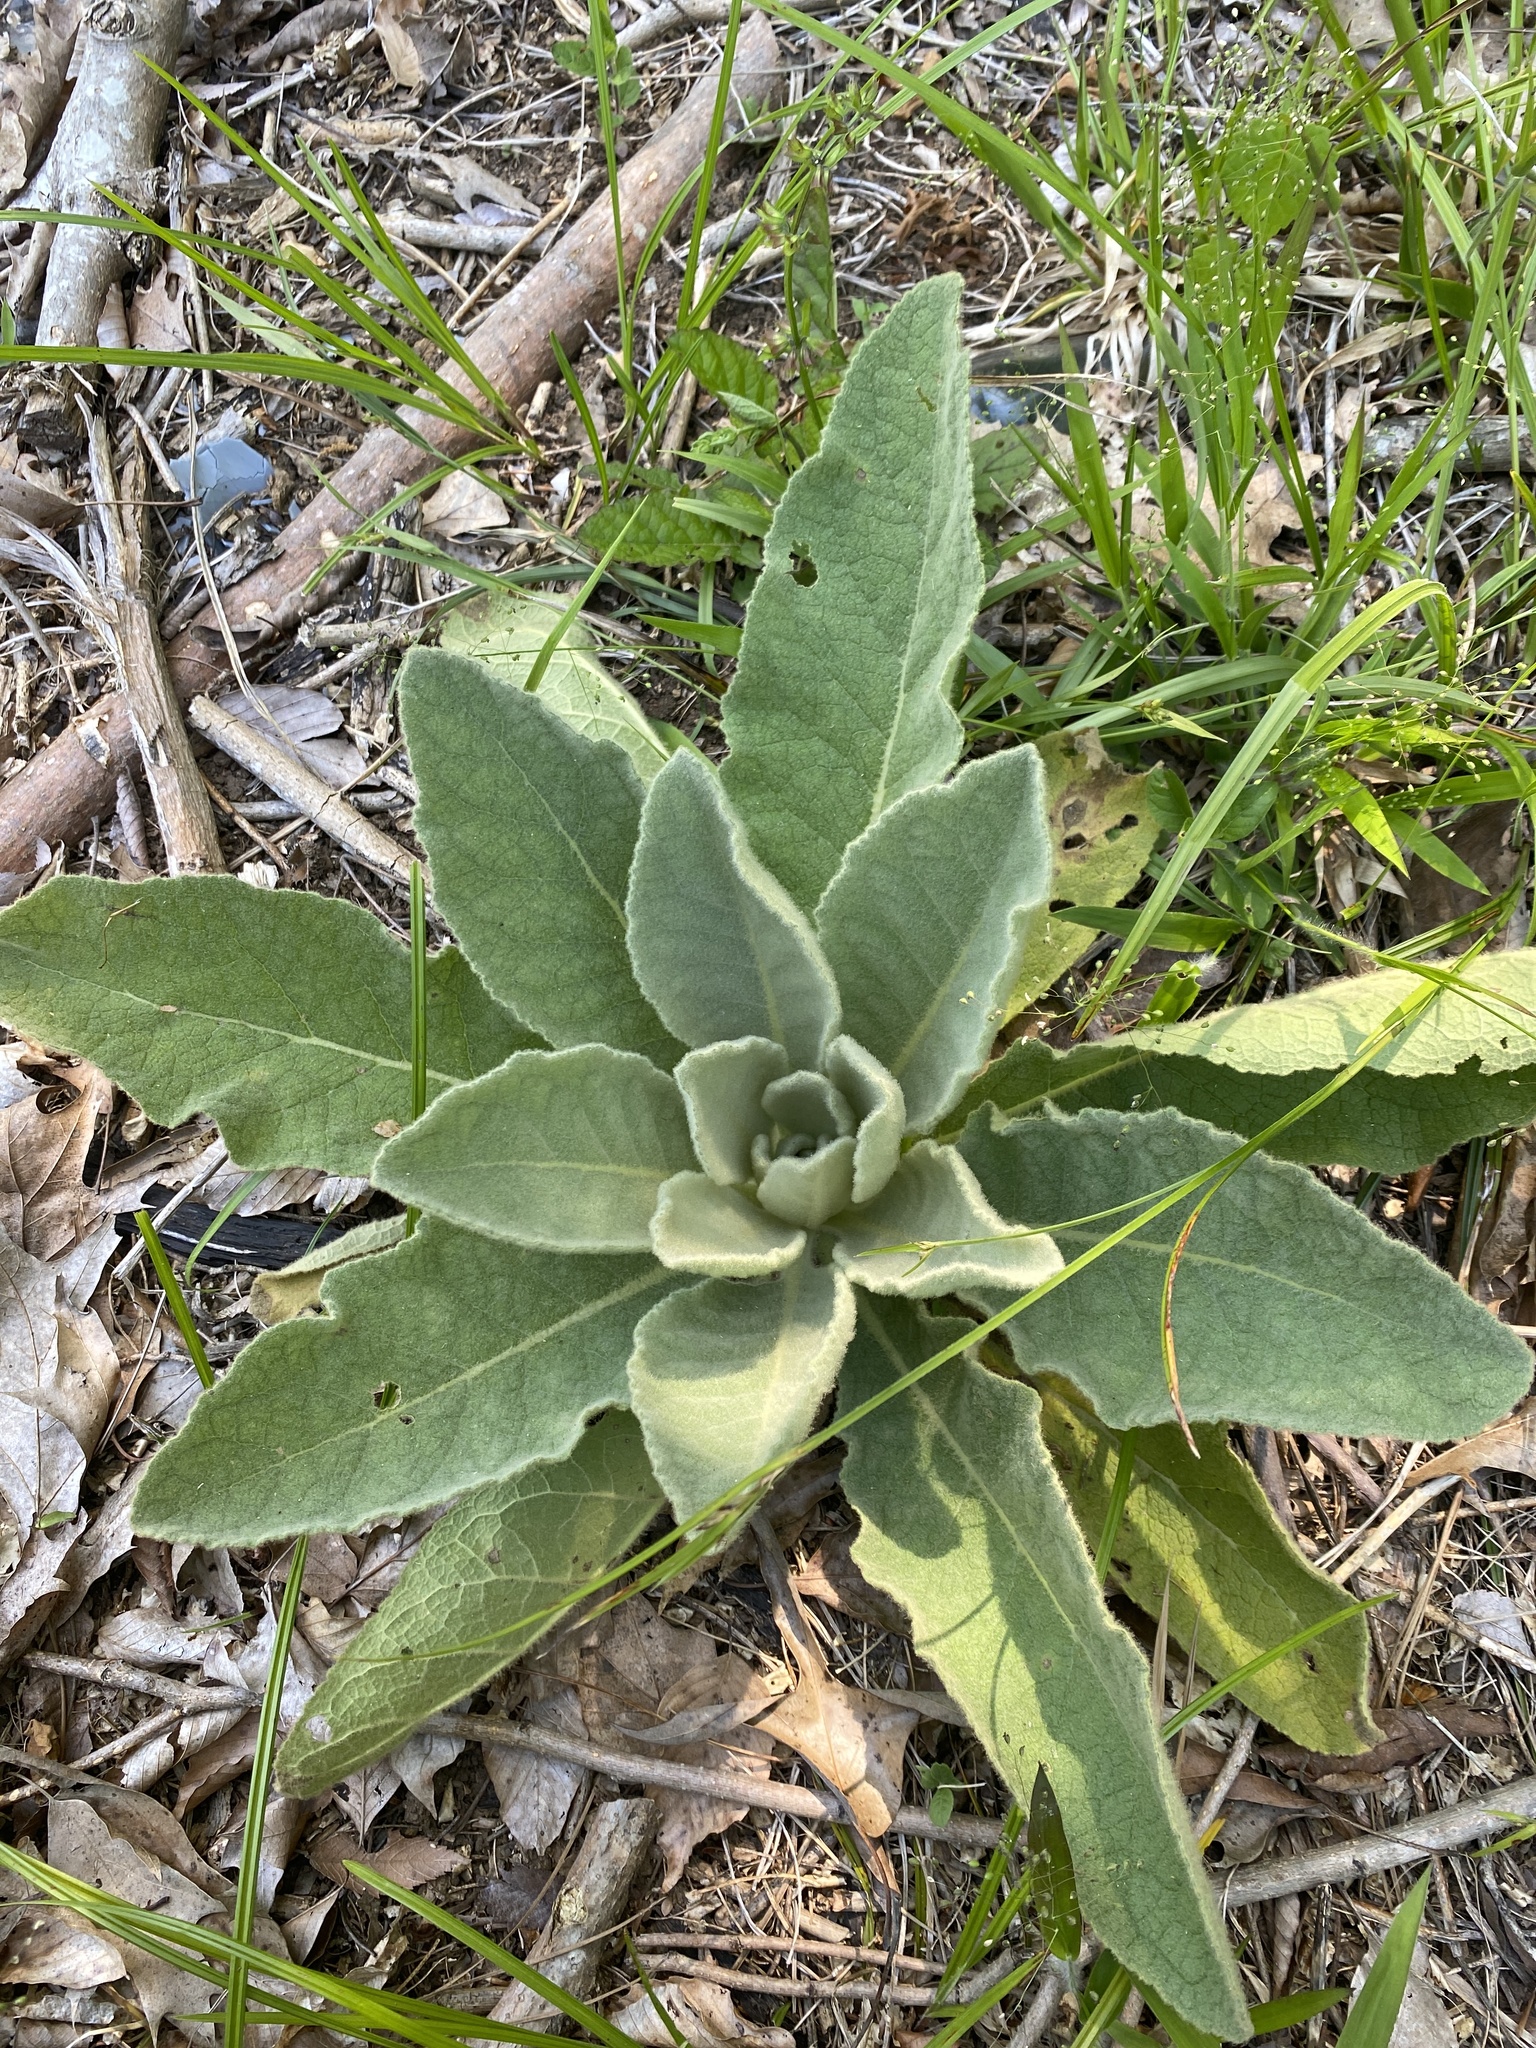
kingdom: Plantae
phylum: Tracheophyta
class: Magnoliopsida
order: Lamiales
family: Scrophulariaceae
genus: Verbascum
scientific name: Verbascum thapsus
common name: Common mullein
